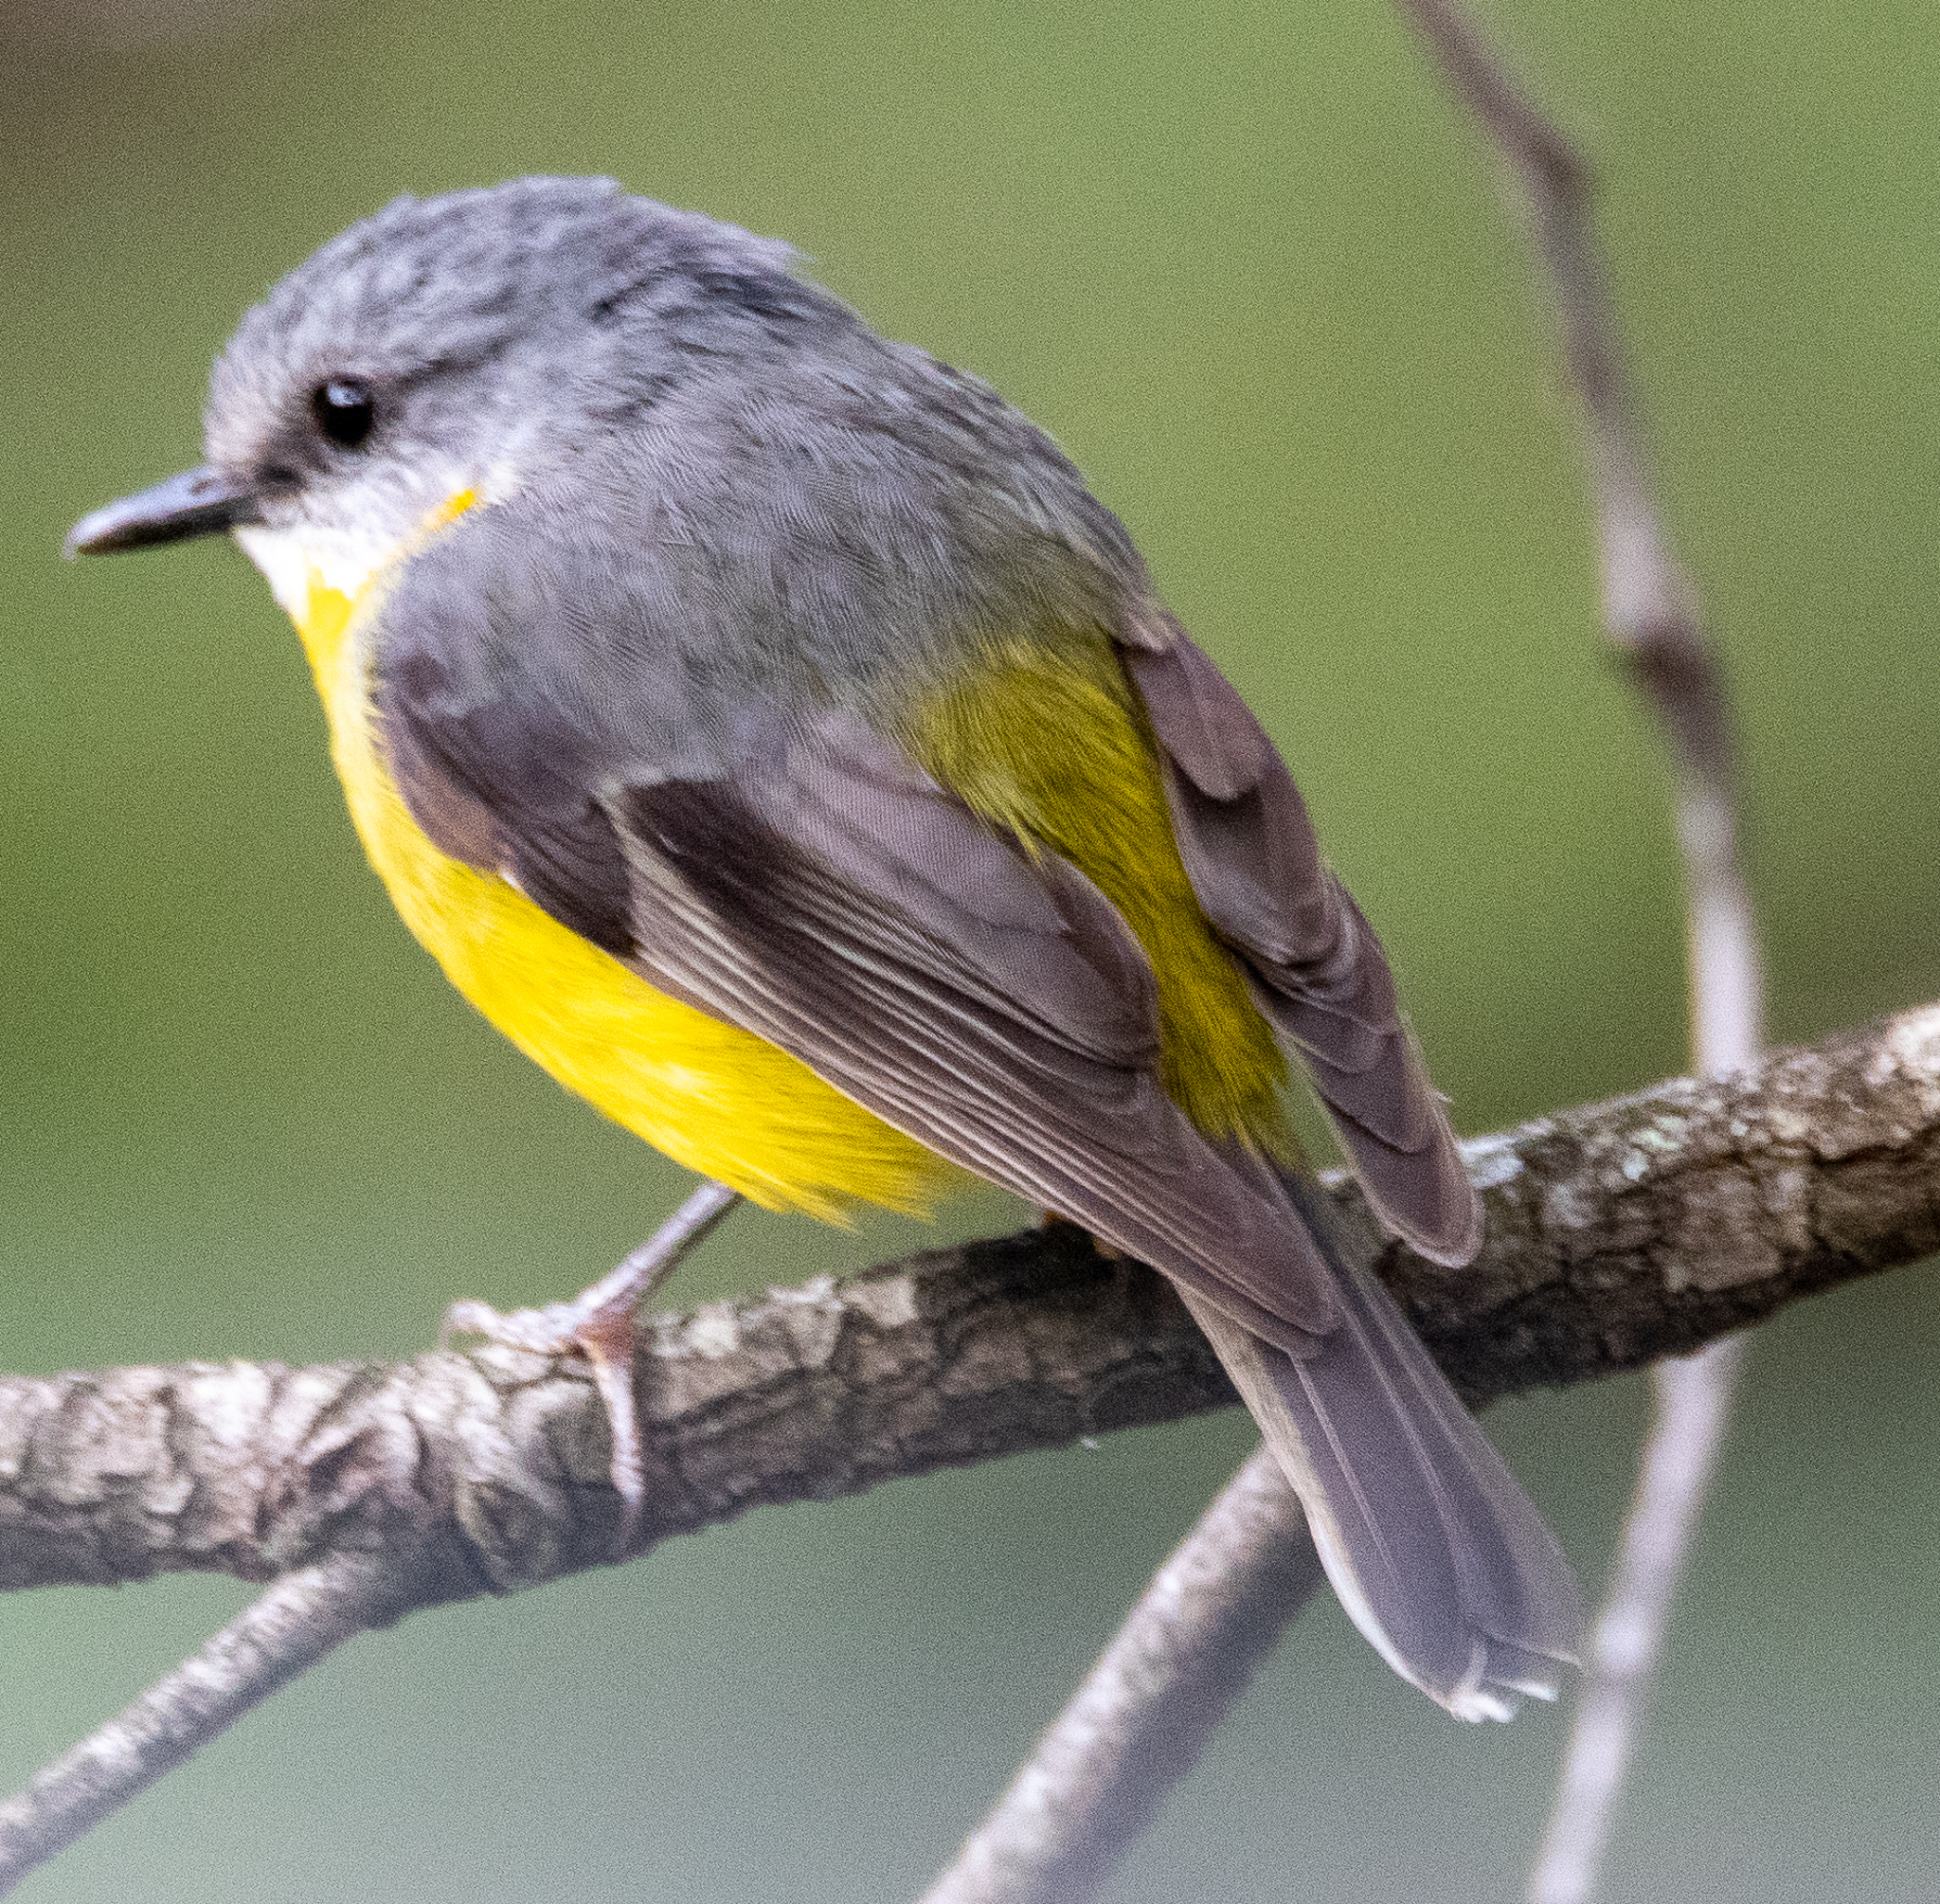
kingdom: Animalia
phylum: Chordata
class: Aves
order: Passeriformes
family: Petroicidae
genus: Eopsaltria
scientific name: Eopsaltria australis
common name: Eastern yellow robin
